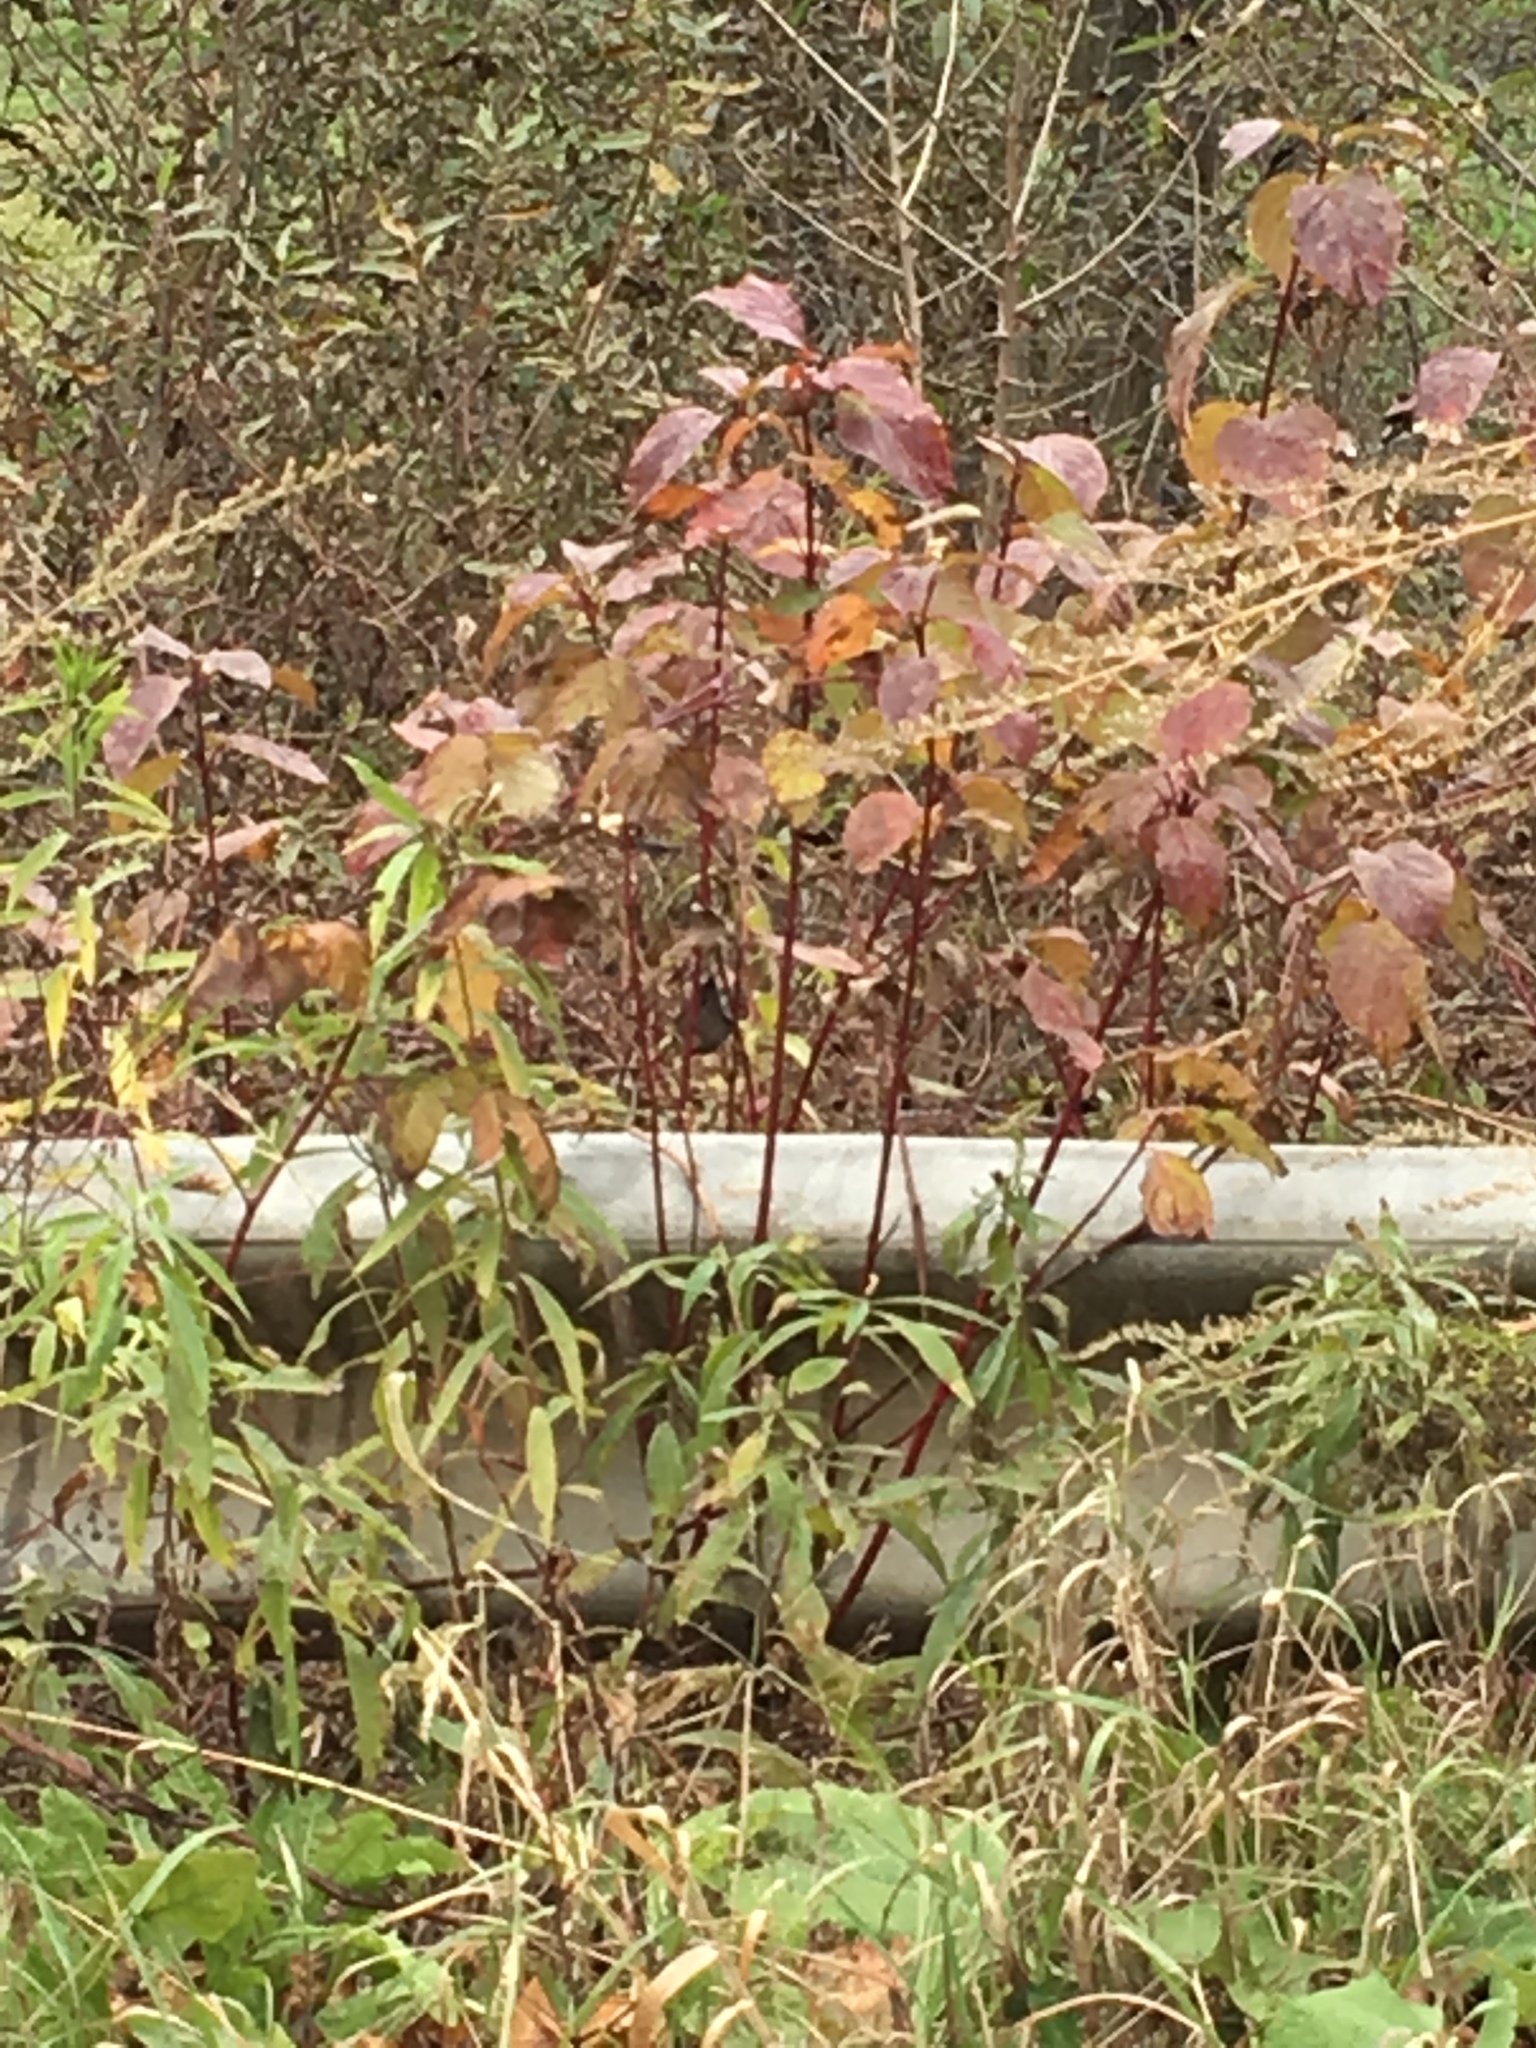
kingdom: Plantae
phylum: Tracheophyta
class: Magnoliopsida
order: Cornales
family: Cornaceae
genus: Cornus
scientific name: Cornus sericea
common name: Red-osier dogwood
